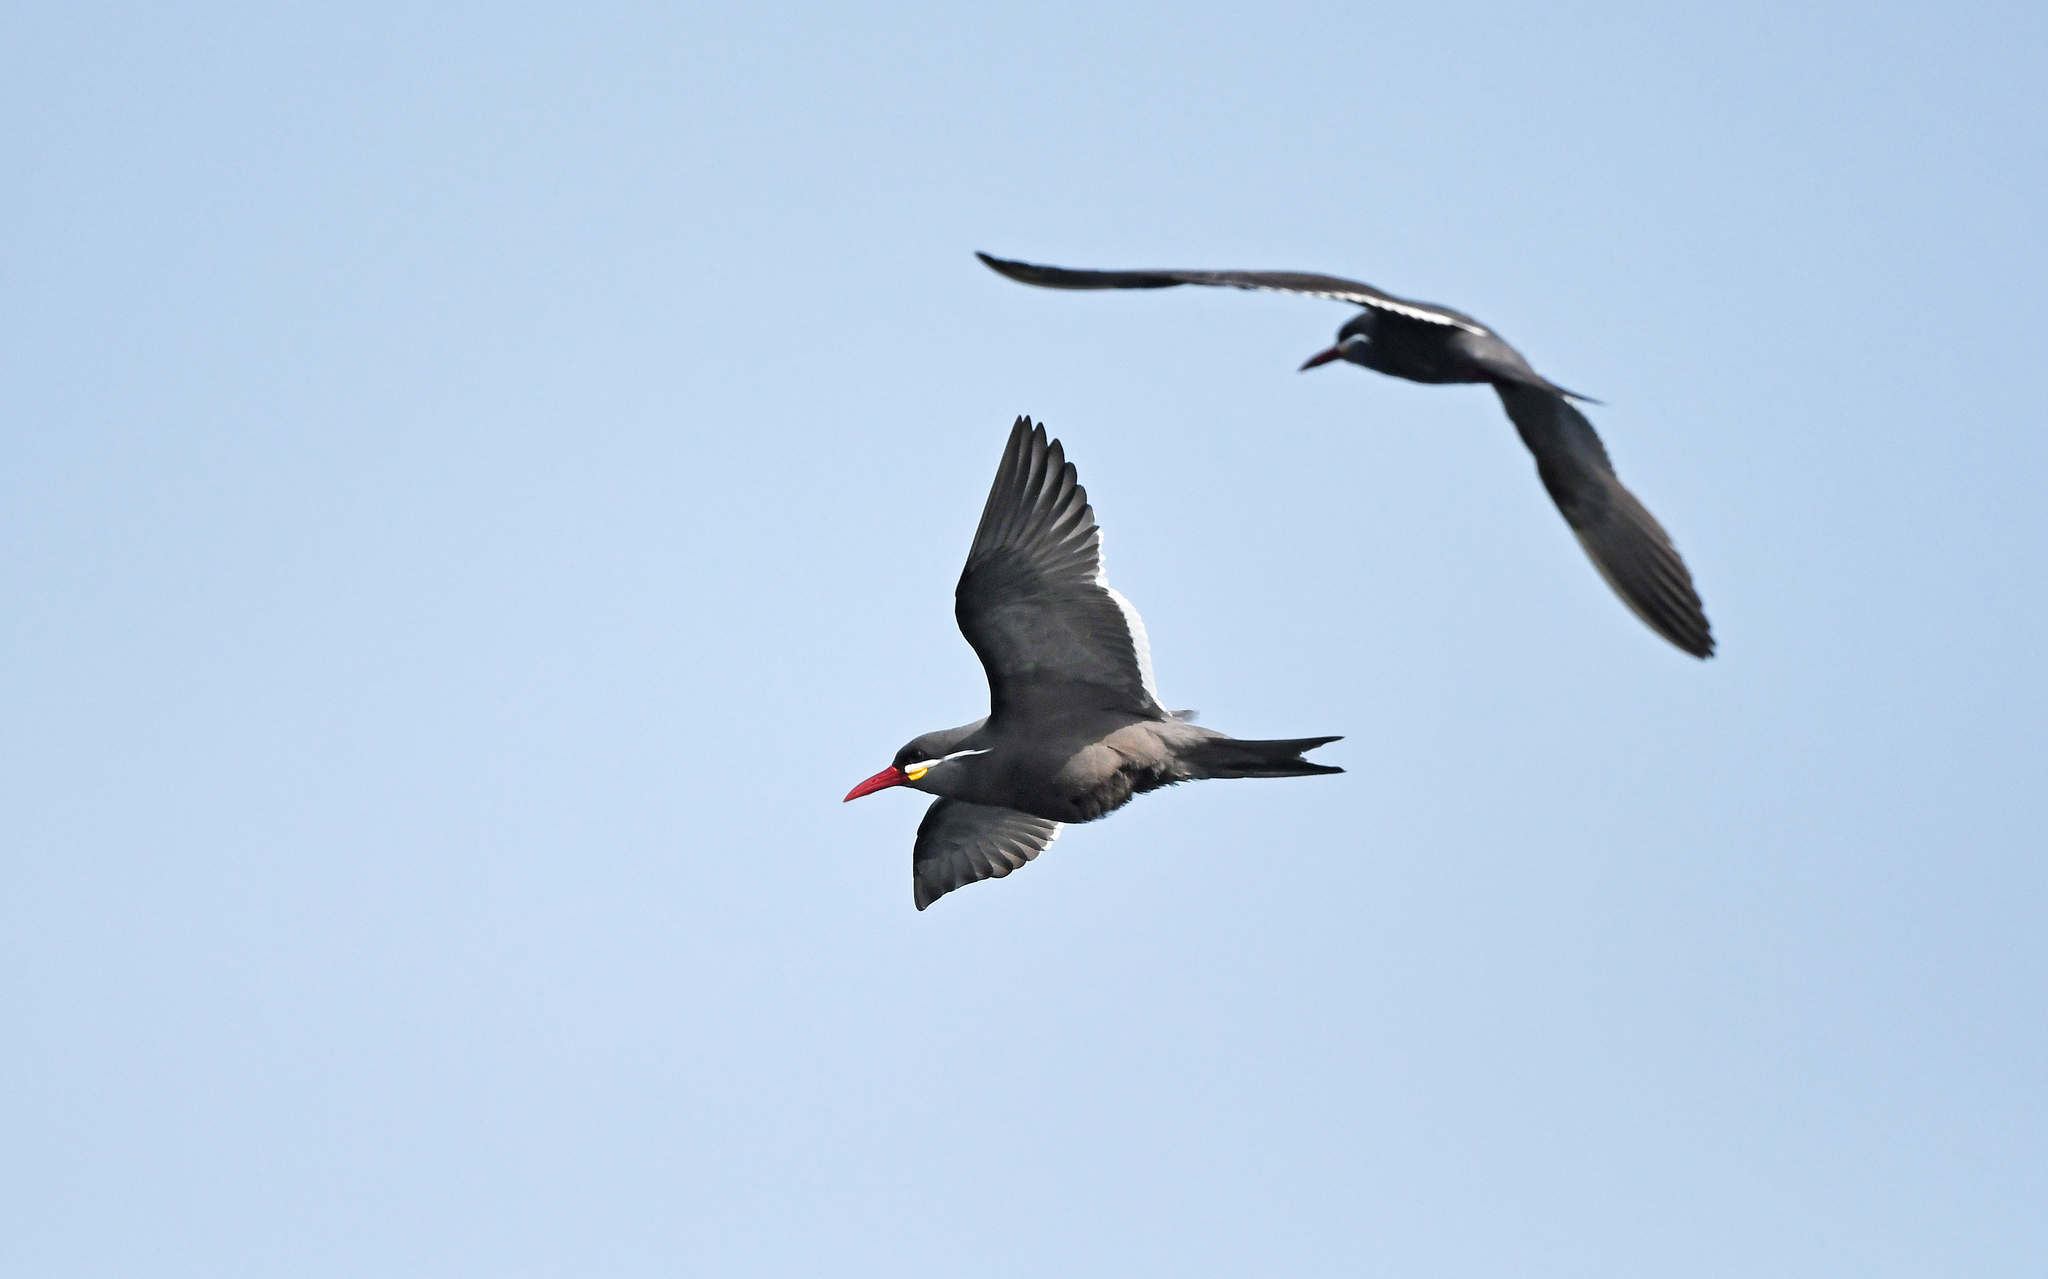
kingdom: Animalia
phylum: Chordata
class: Aves
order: Charadriiformes
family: Laridae
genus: Larosterna
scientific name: Larosterna inca
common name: Inca tern
